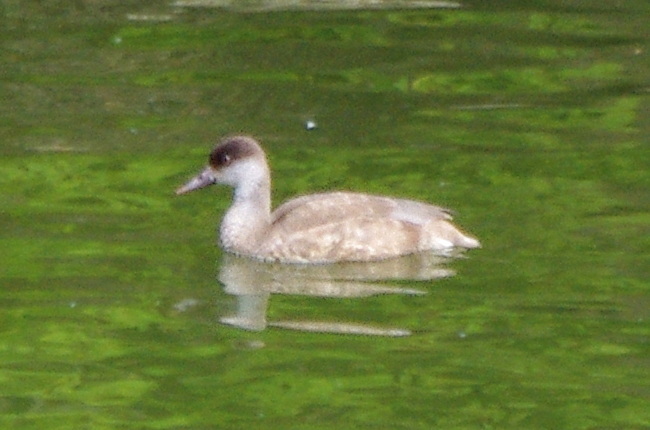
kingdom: Animalia
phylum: Chordata
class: Aves
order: Anseriformes
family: Anatidae
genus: Netta
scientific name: Netta rufina
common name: Red-crested pochard
